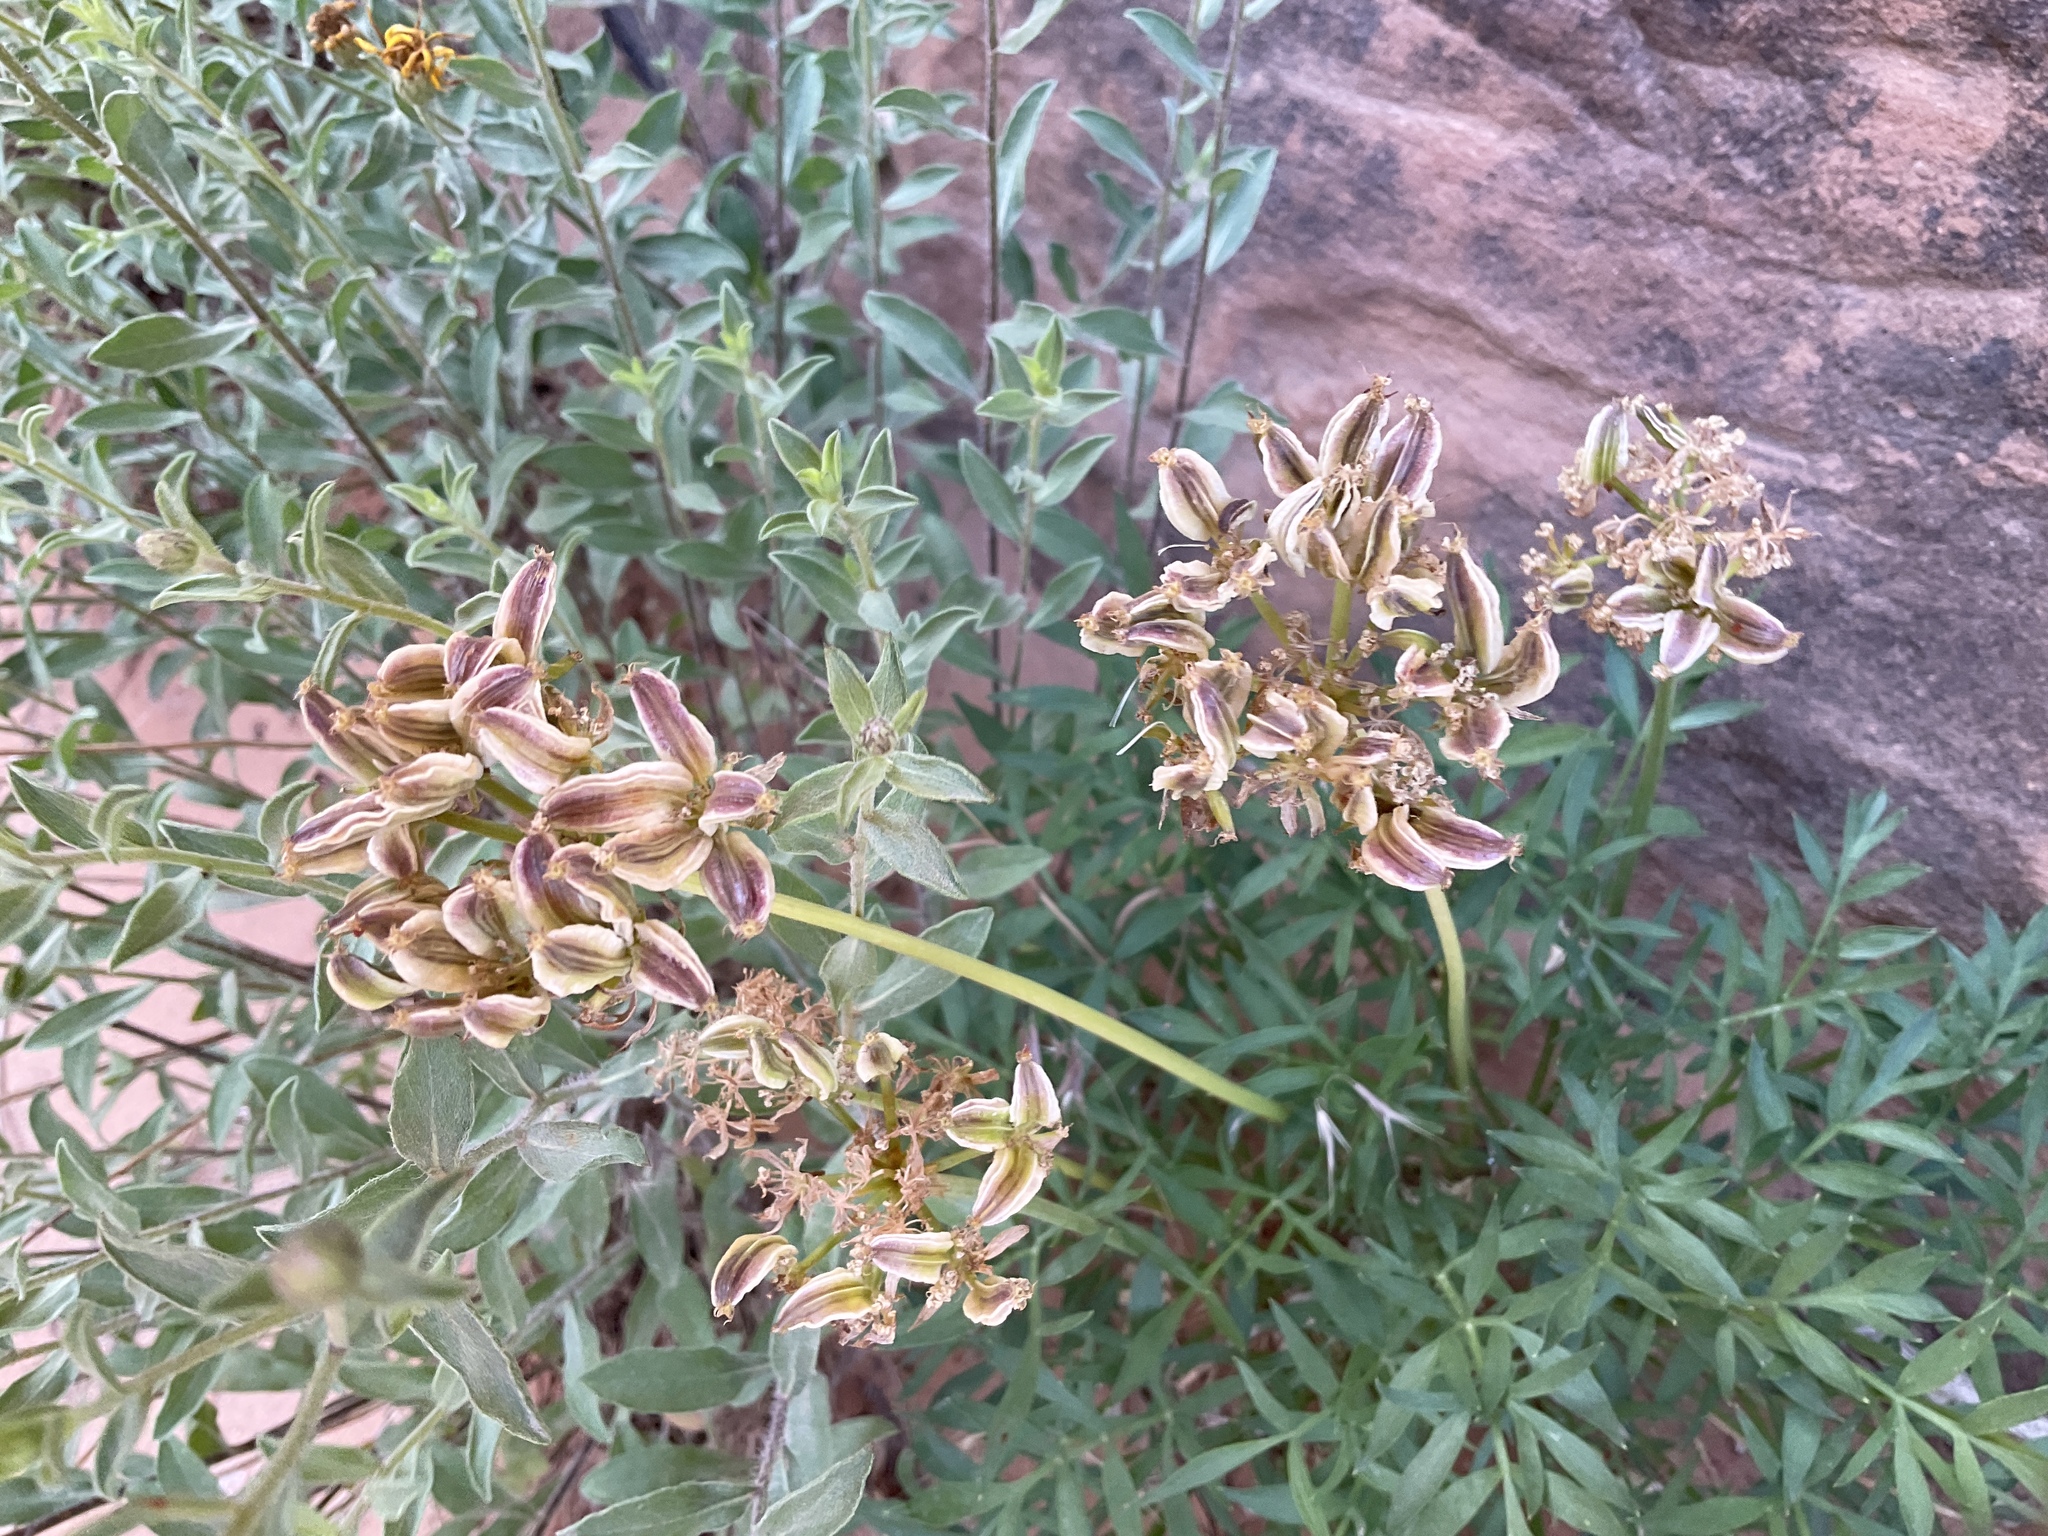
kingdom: Plantae
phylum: Tracheophyta
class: Magnoliopsida
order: Apiales
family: Apiaceae
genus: Lomatium
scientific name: Lomatium latilobum
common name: Canyonlands lomatium
